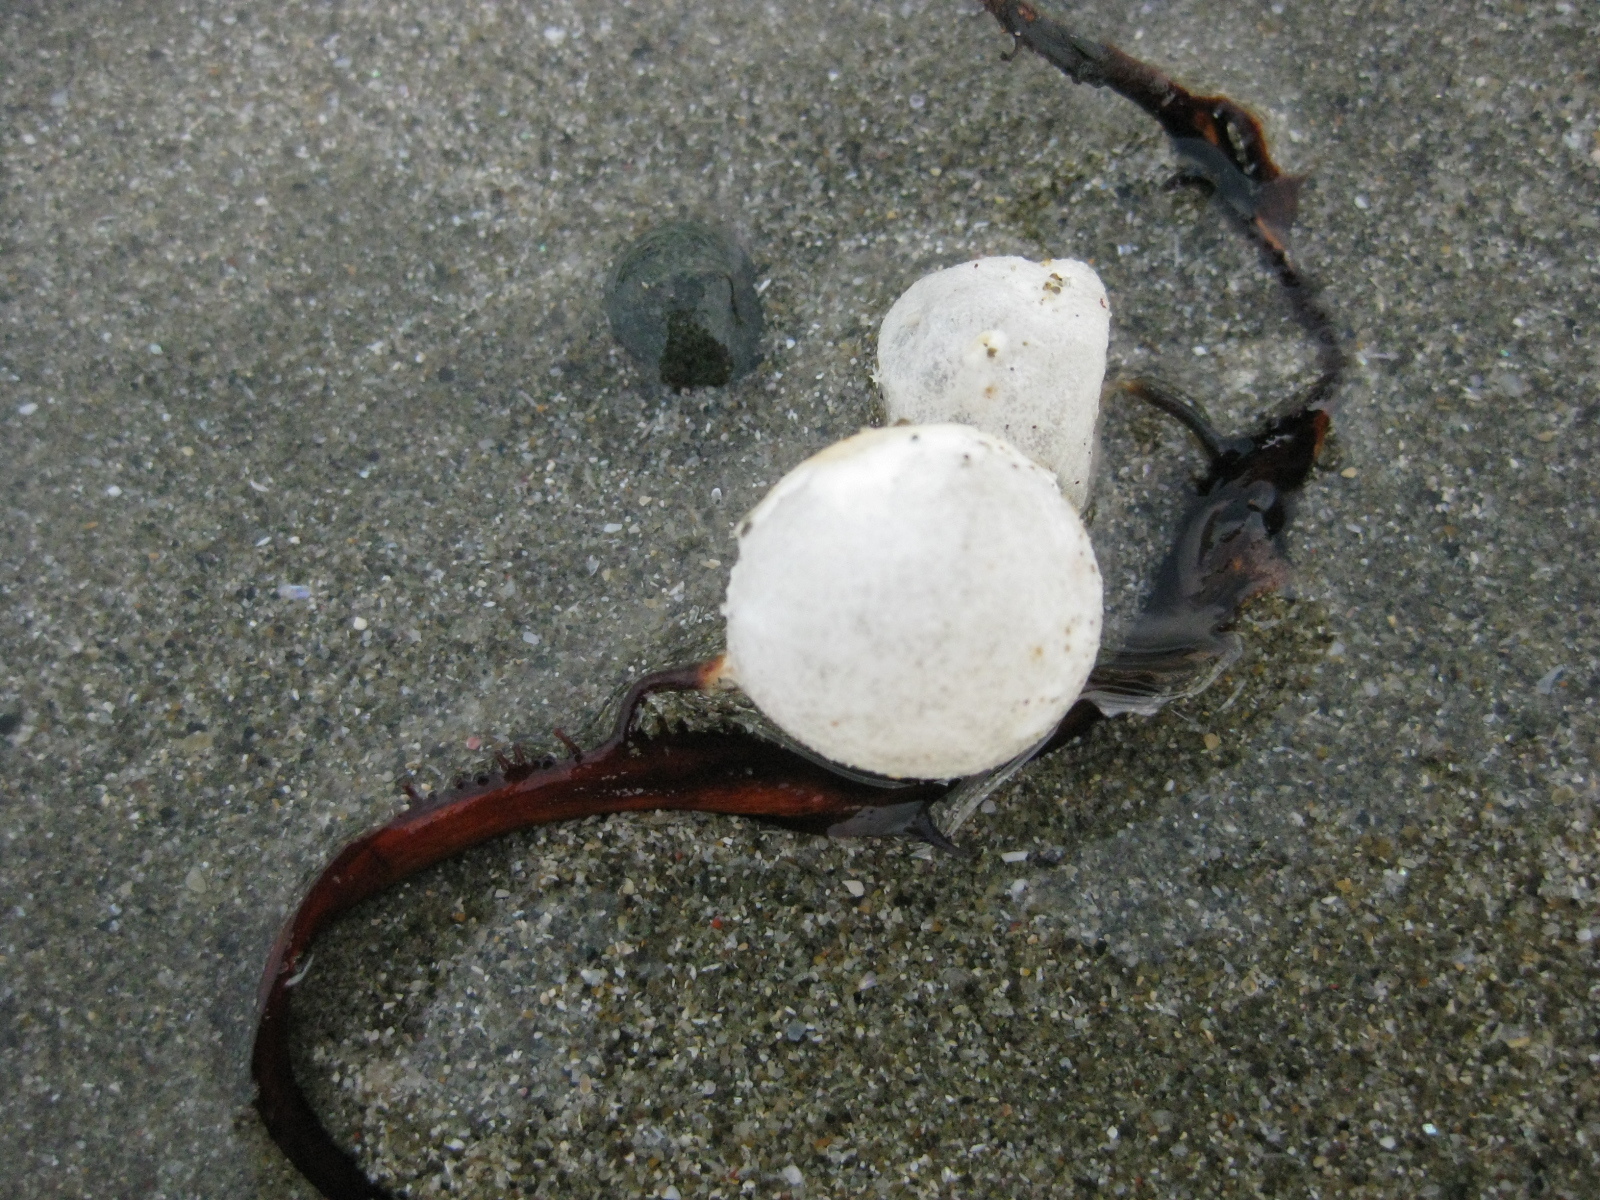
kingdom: Animalia
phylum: Mollusca
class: Cephalopoda
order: Sepiida
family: Sepiadariidae
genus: Sepioloidea
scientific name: Sepioloidea pacifica
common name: Pacific bobtail squid
